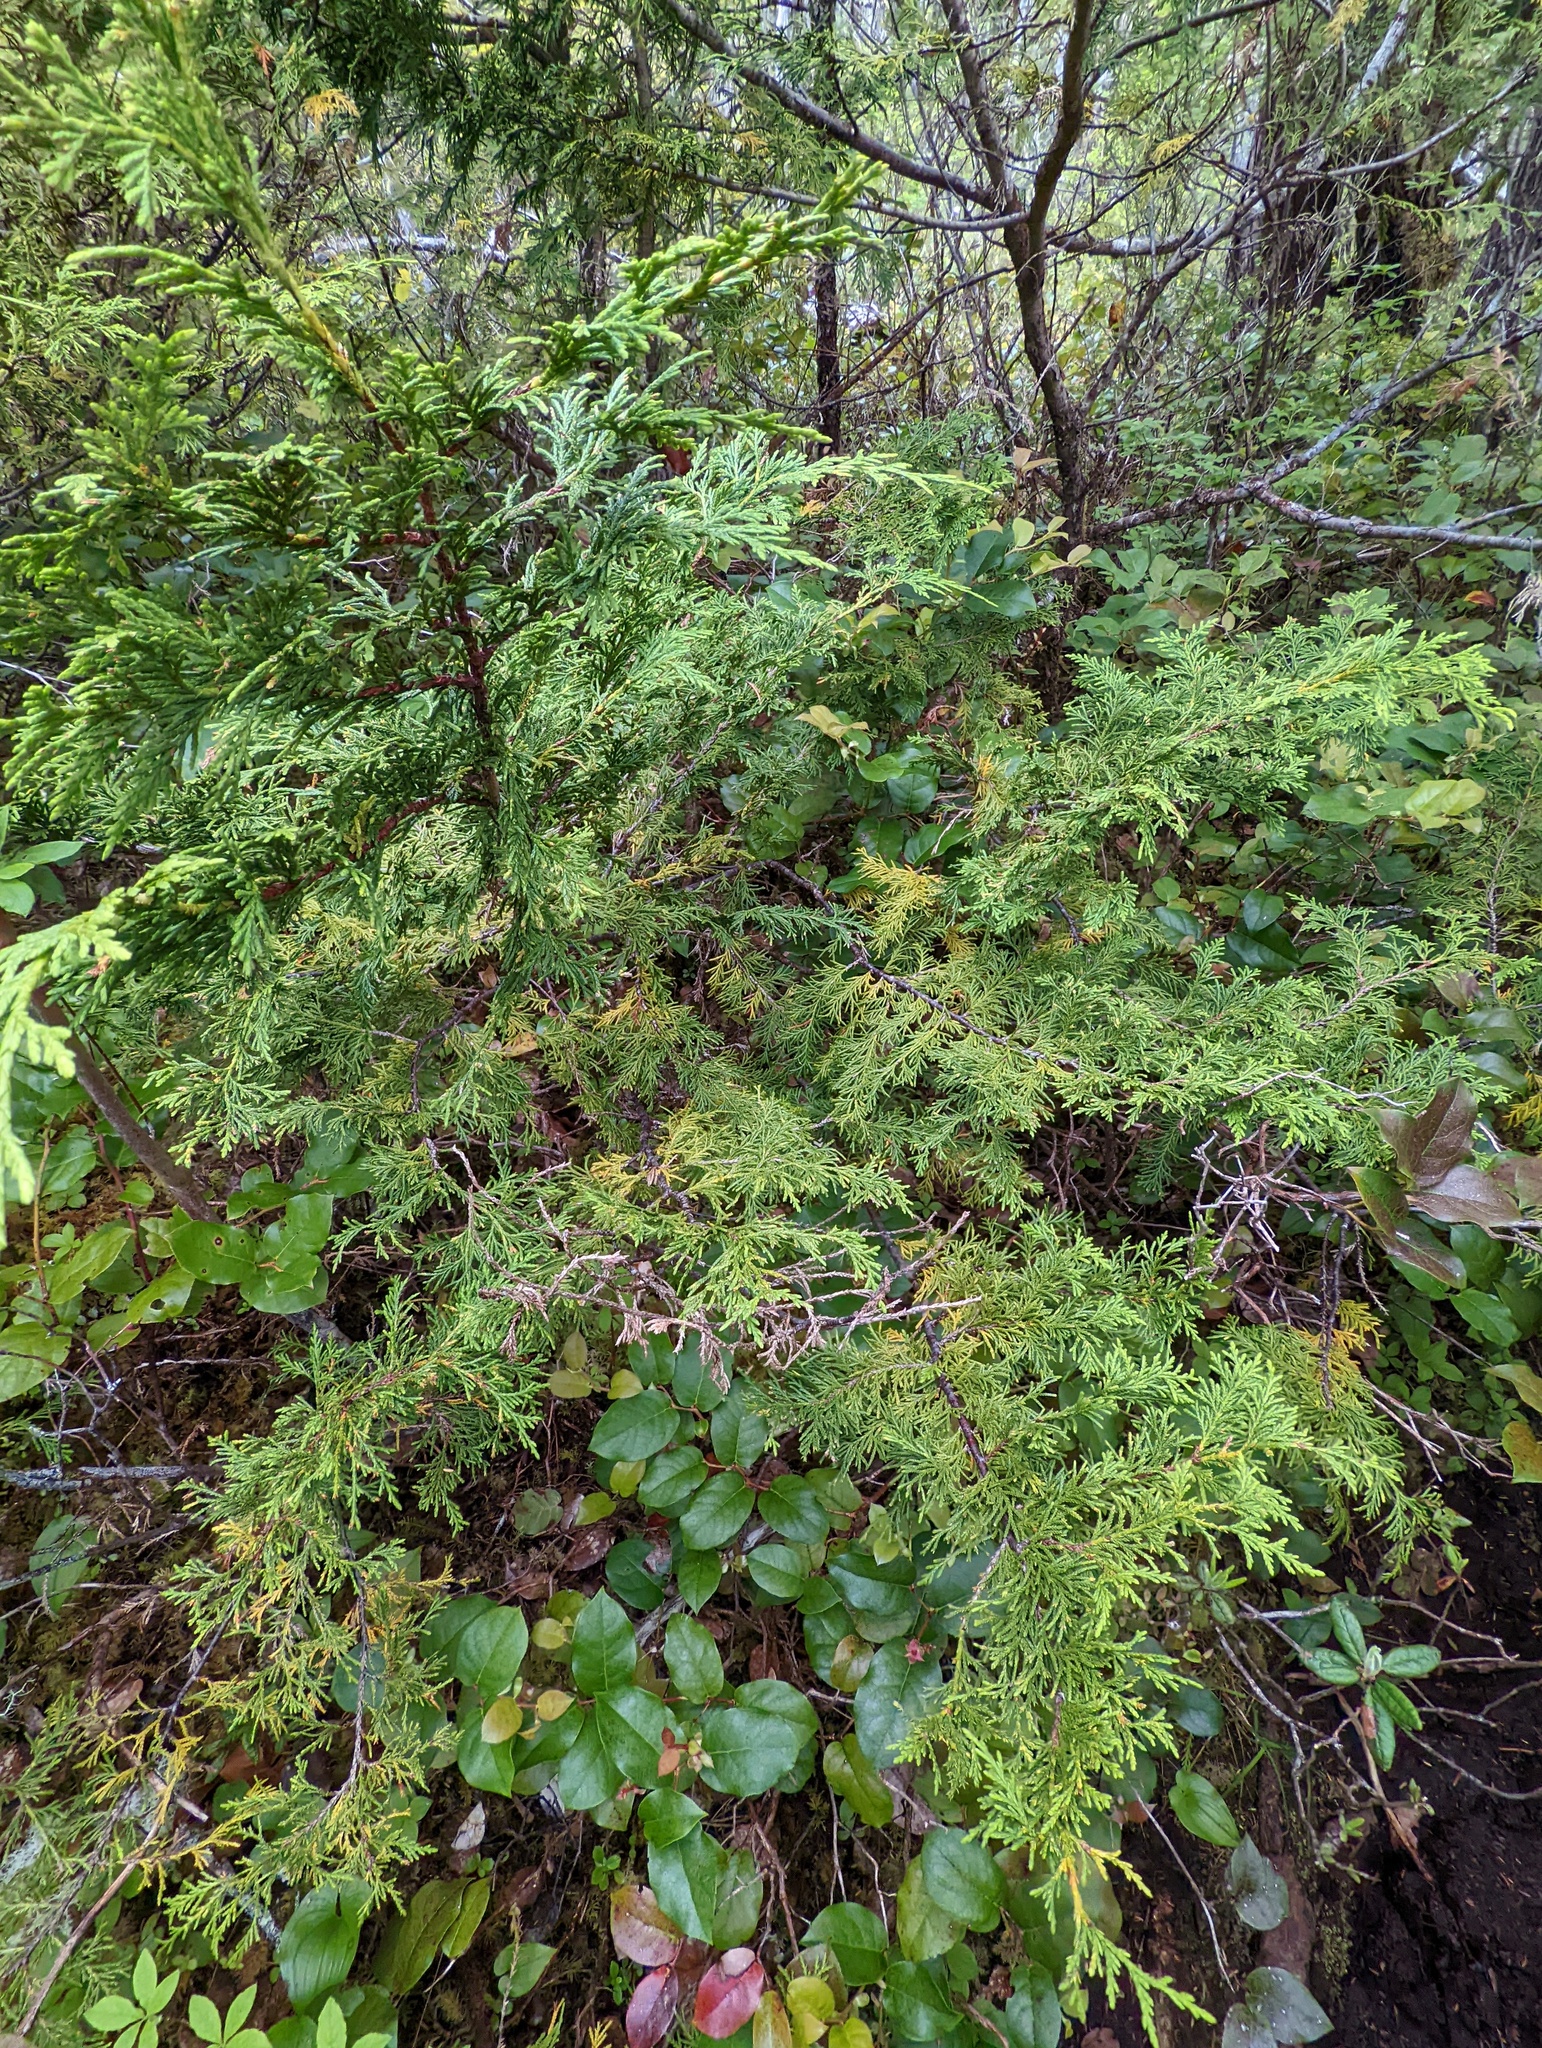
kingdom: Plantae
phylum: Tracheophyta
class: Pinopsida
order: Pinales
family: Cupressaceae
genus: Xanthocyparis
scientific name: Xanthocyparis nootkatensis
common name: Nootka cypress
